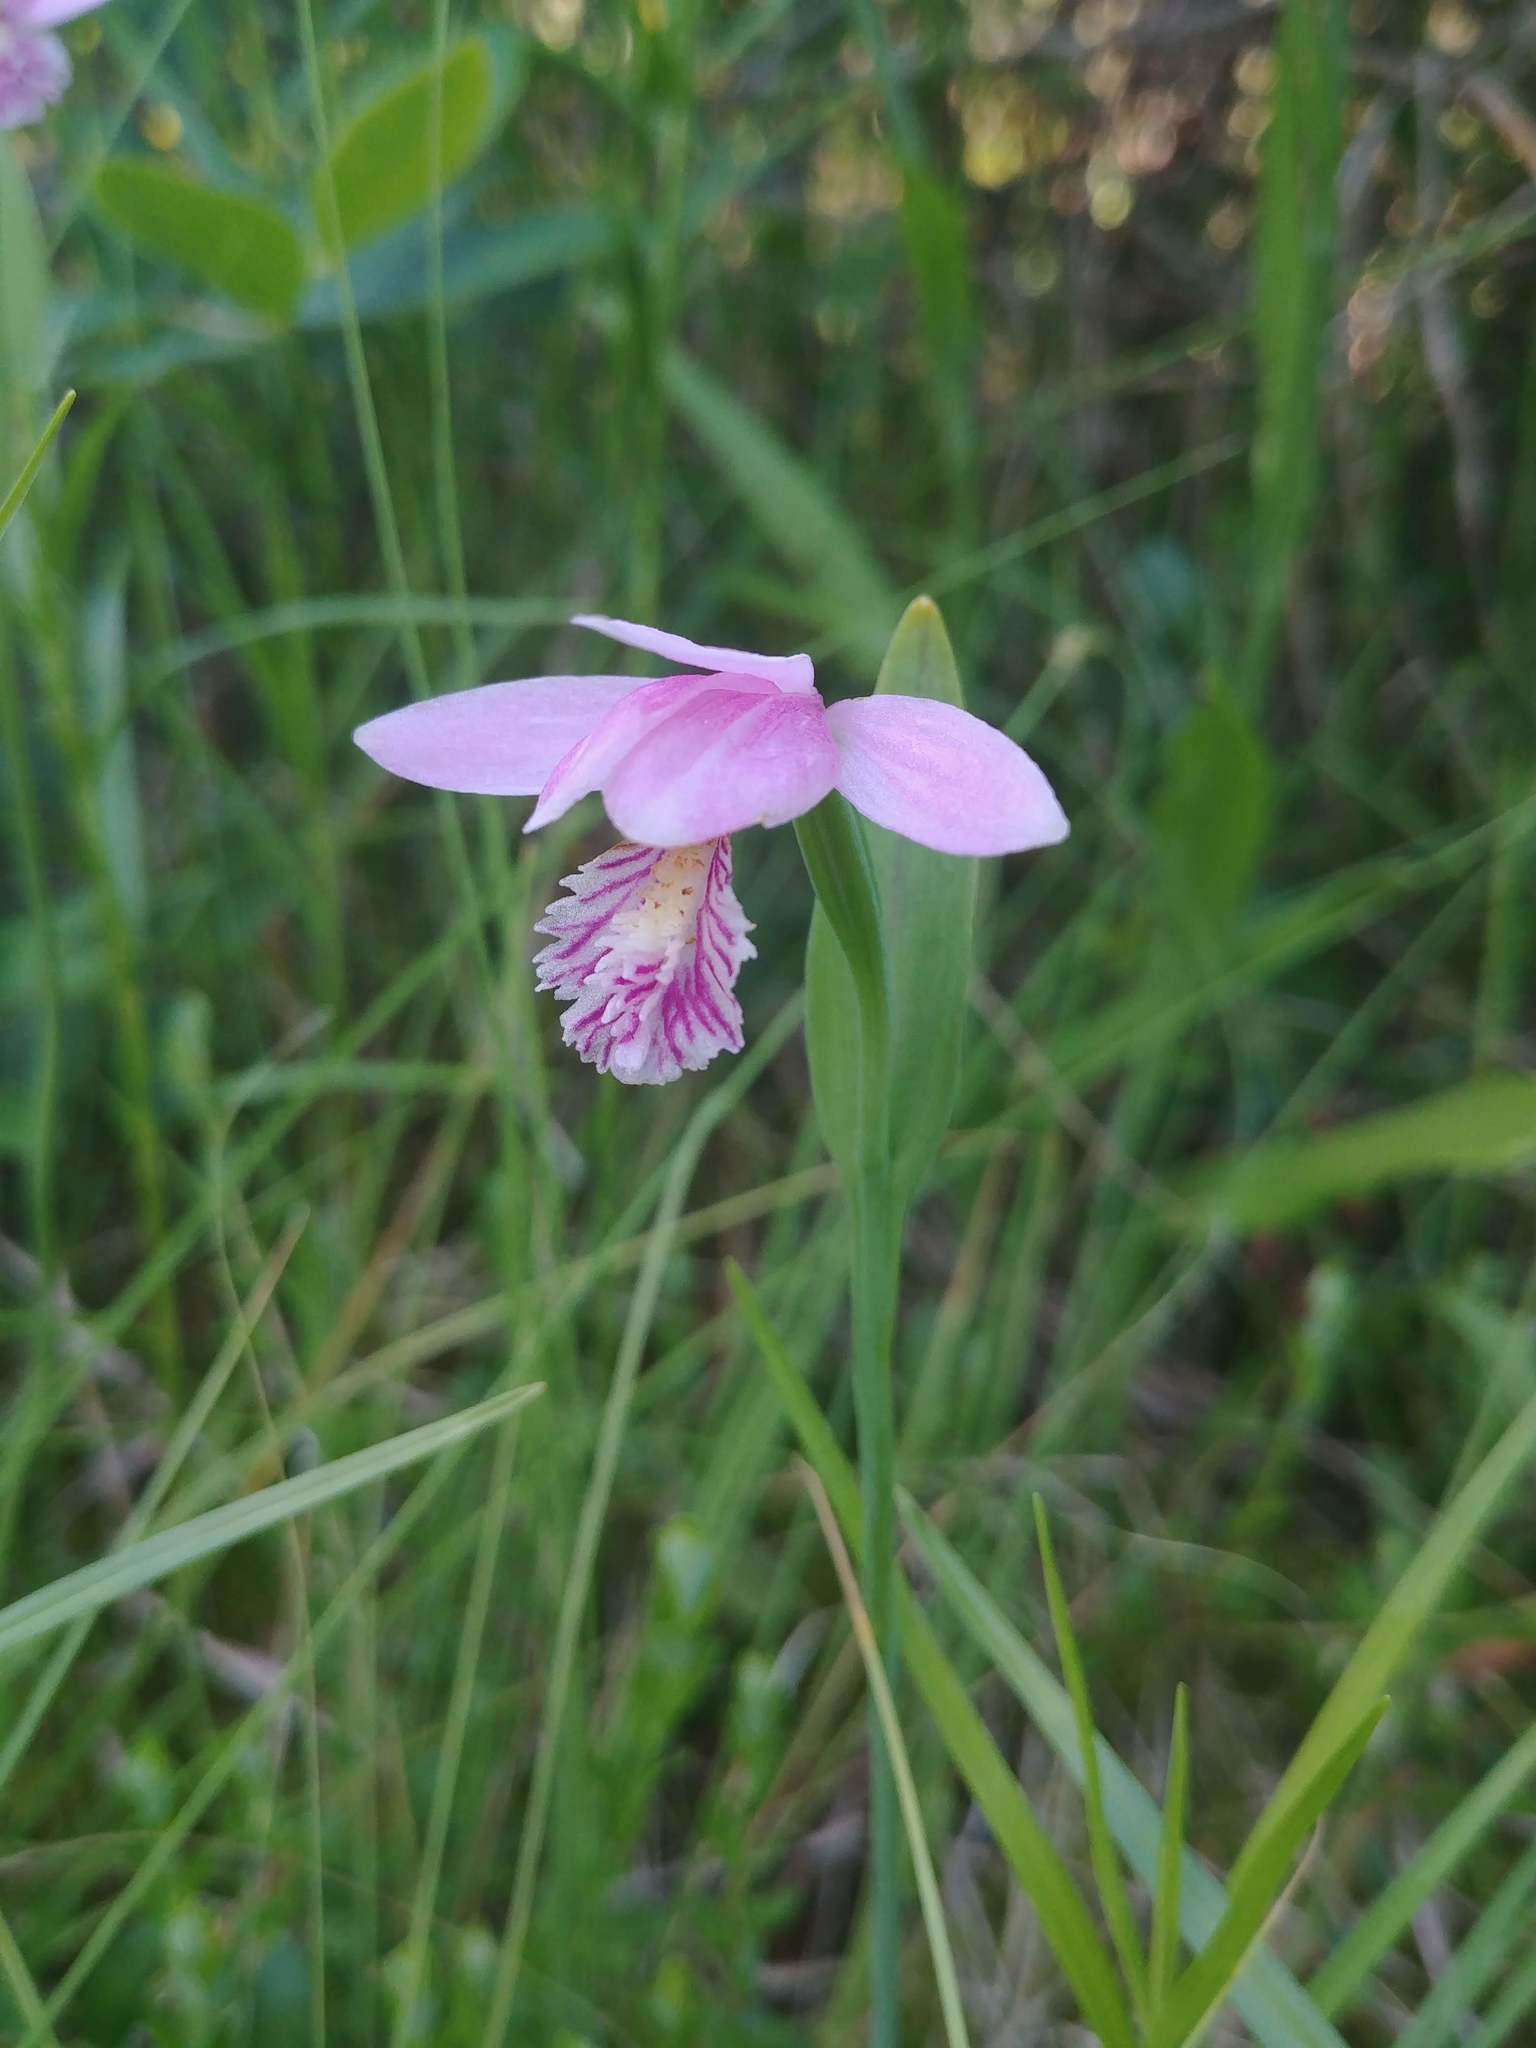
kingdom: Plantae
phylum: Tracheophyta
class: Liliopsida
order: Asparagales
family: Orchidaceae
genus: Pogonia
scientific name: Pogonia ophioglossoides
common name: Rose pogonia
